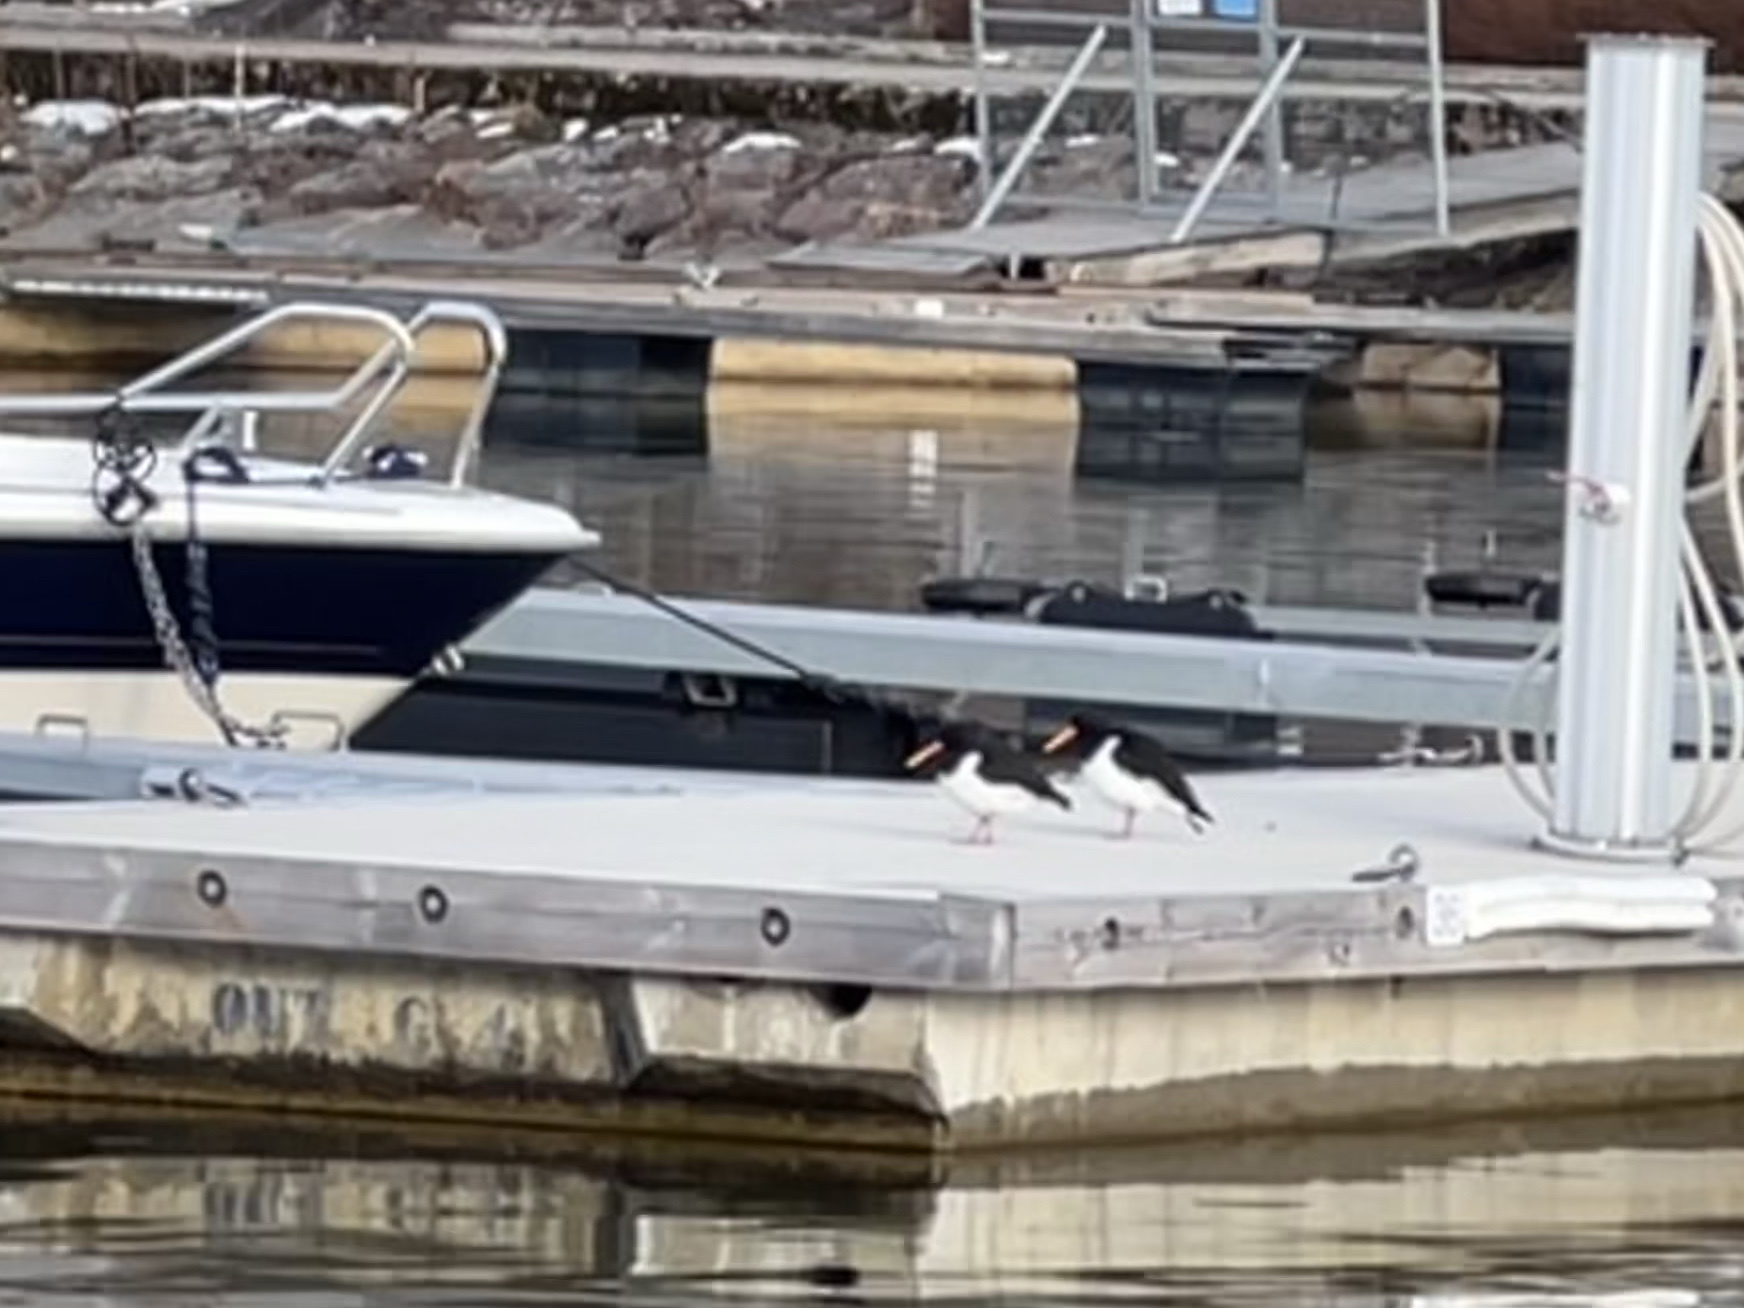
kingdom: Animalia
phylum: Chordata
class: Aves
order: Charadriiformes
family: Haematopodidae
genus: Haematopus
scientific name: Haematopus ostralegus
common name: Eurasian oystercatcher
